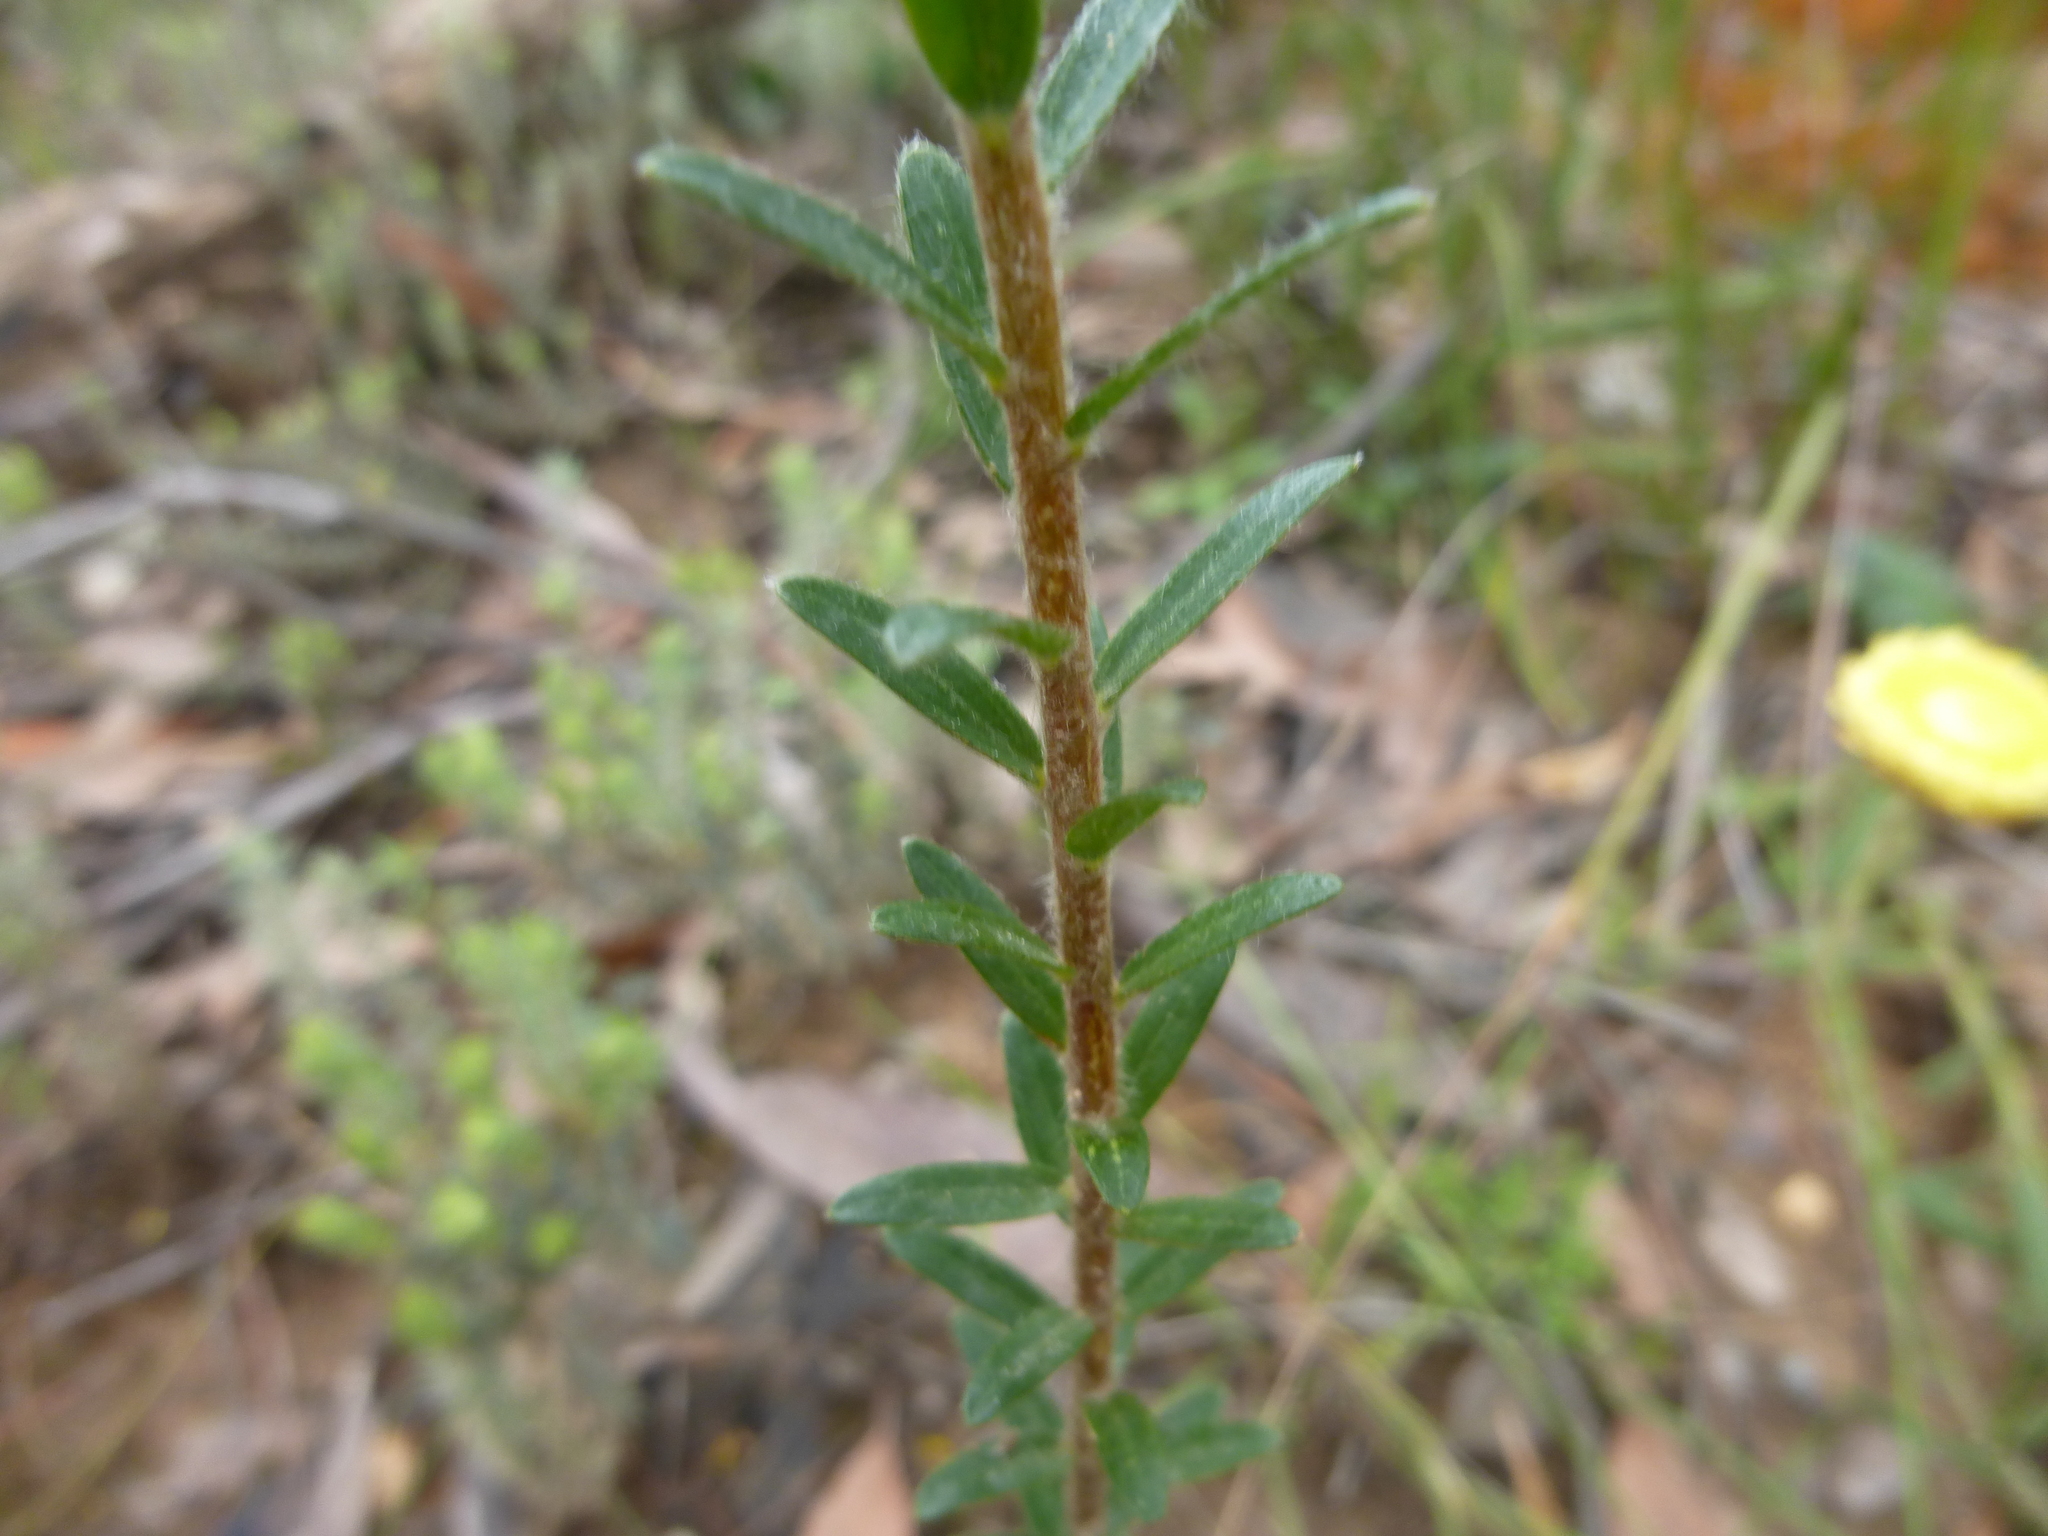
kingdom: Plantae
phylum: Tracheophyta
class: Magnoliopsida
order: Malvales
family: Thymelaeaceae
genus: Pimelea
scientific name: Pimelea octophylla
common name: Woolly riceflower
